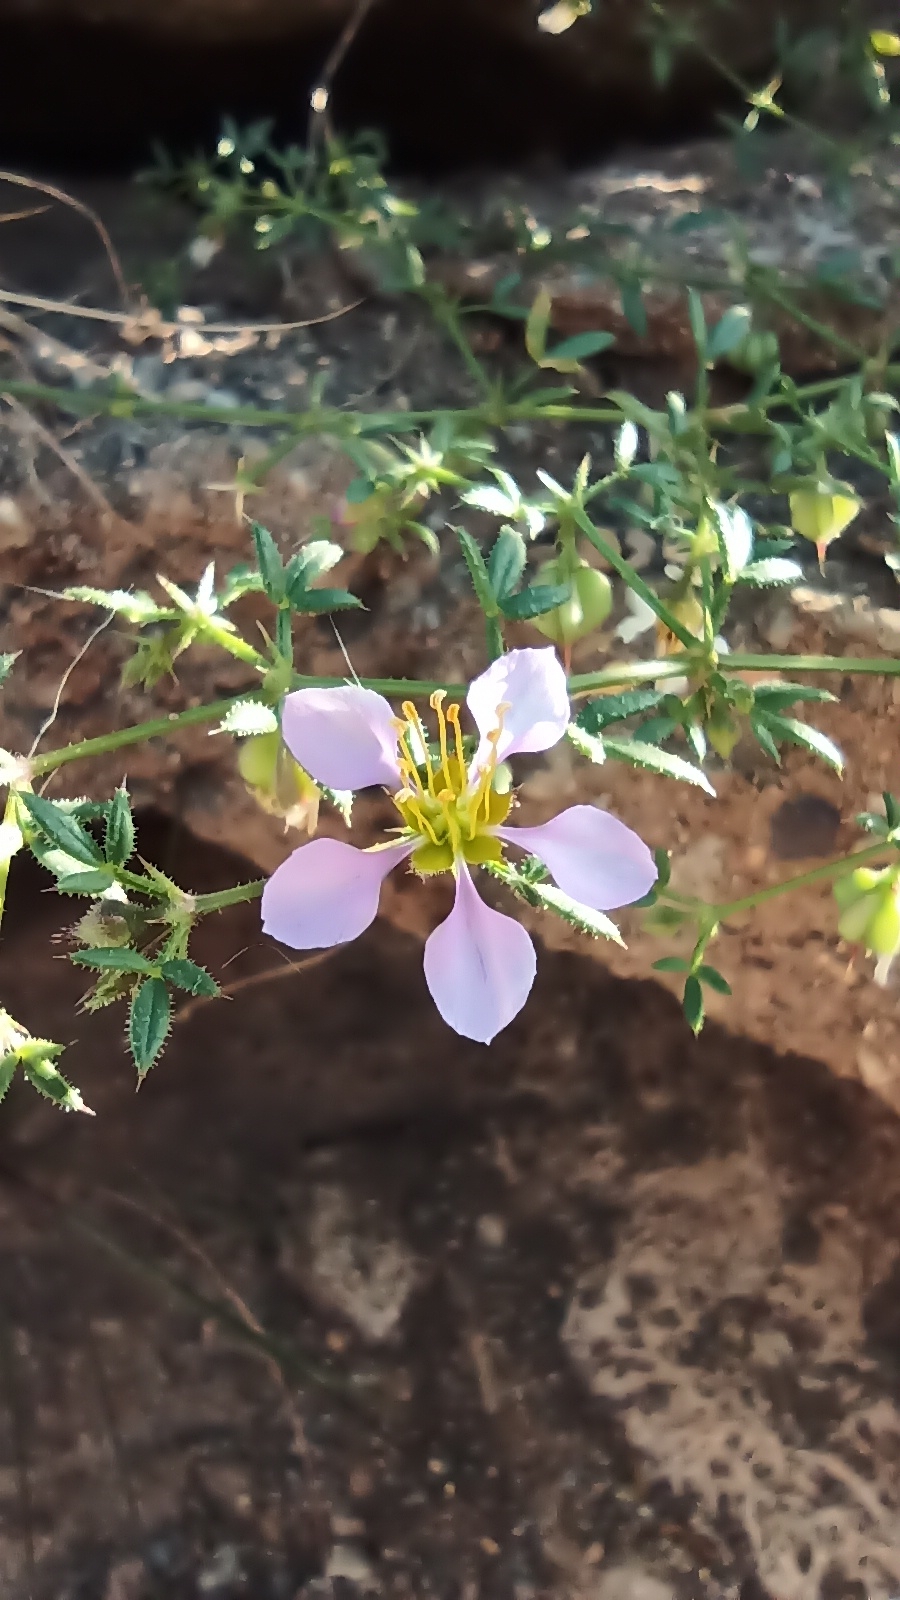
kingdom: Plantae
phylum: Tracheophyta
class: Magnoliopsida
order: Zygophyllales
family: Zygophyllaceae
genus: Fagonia
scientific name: Fagonia cretica
